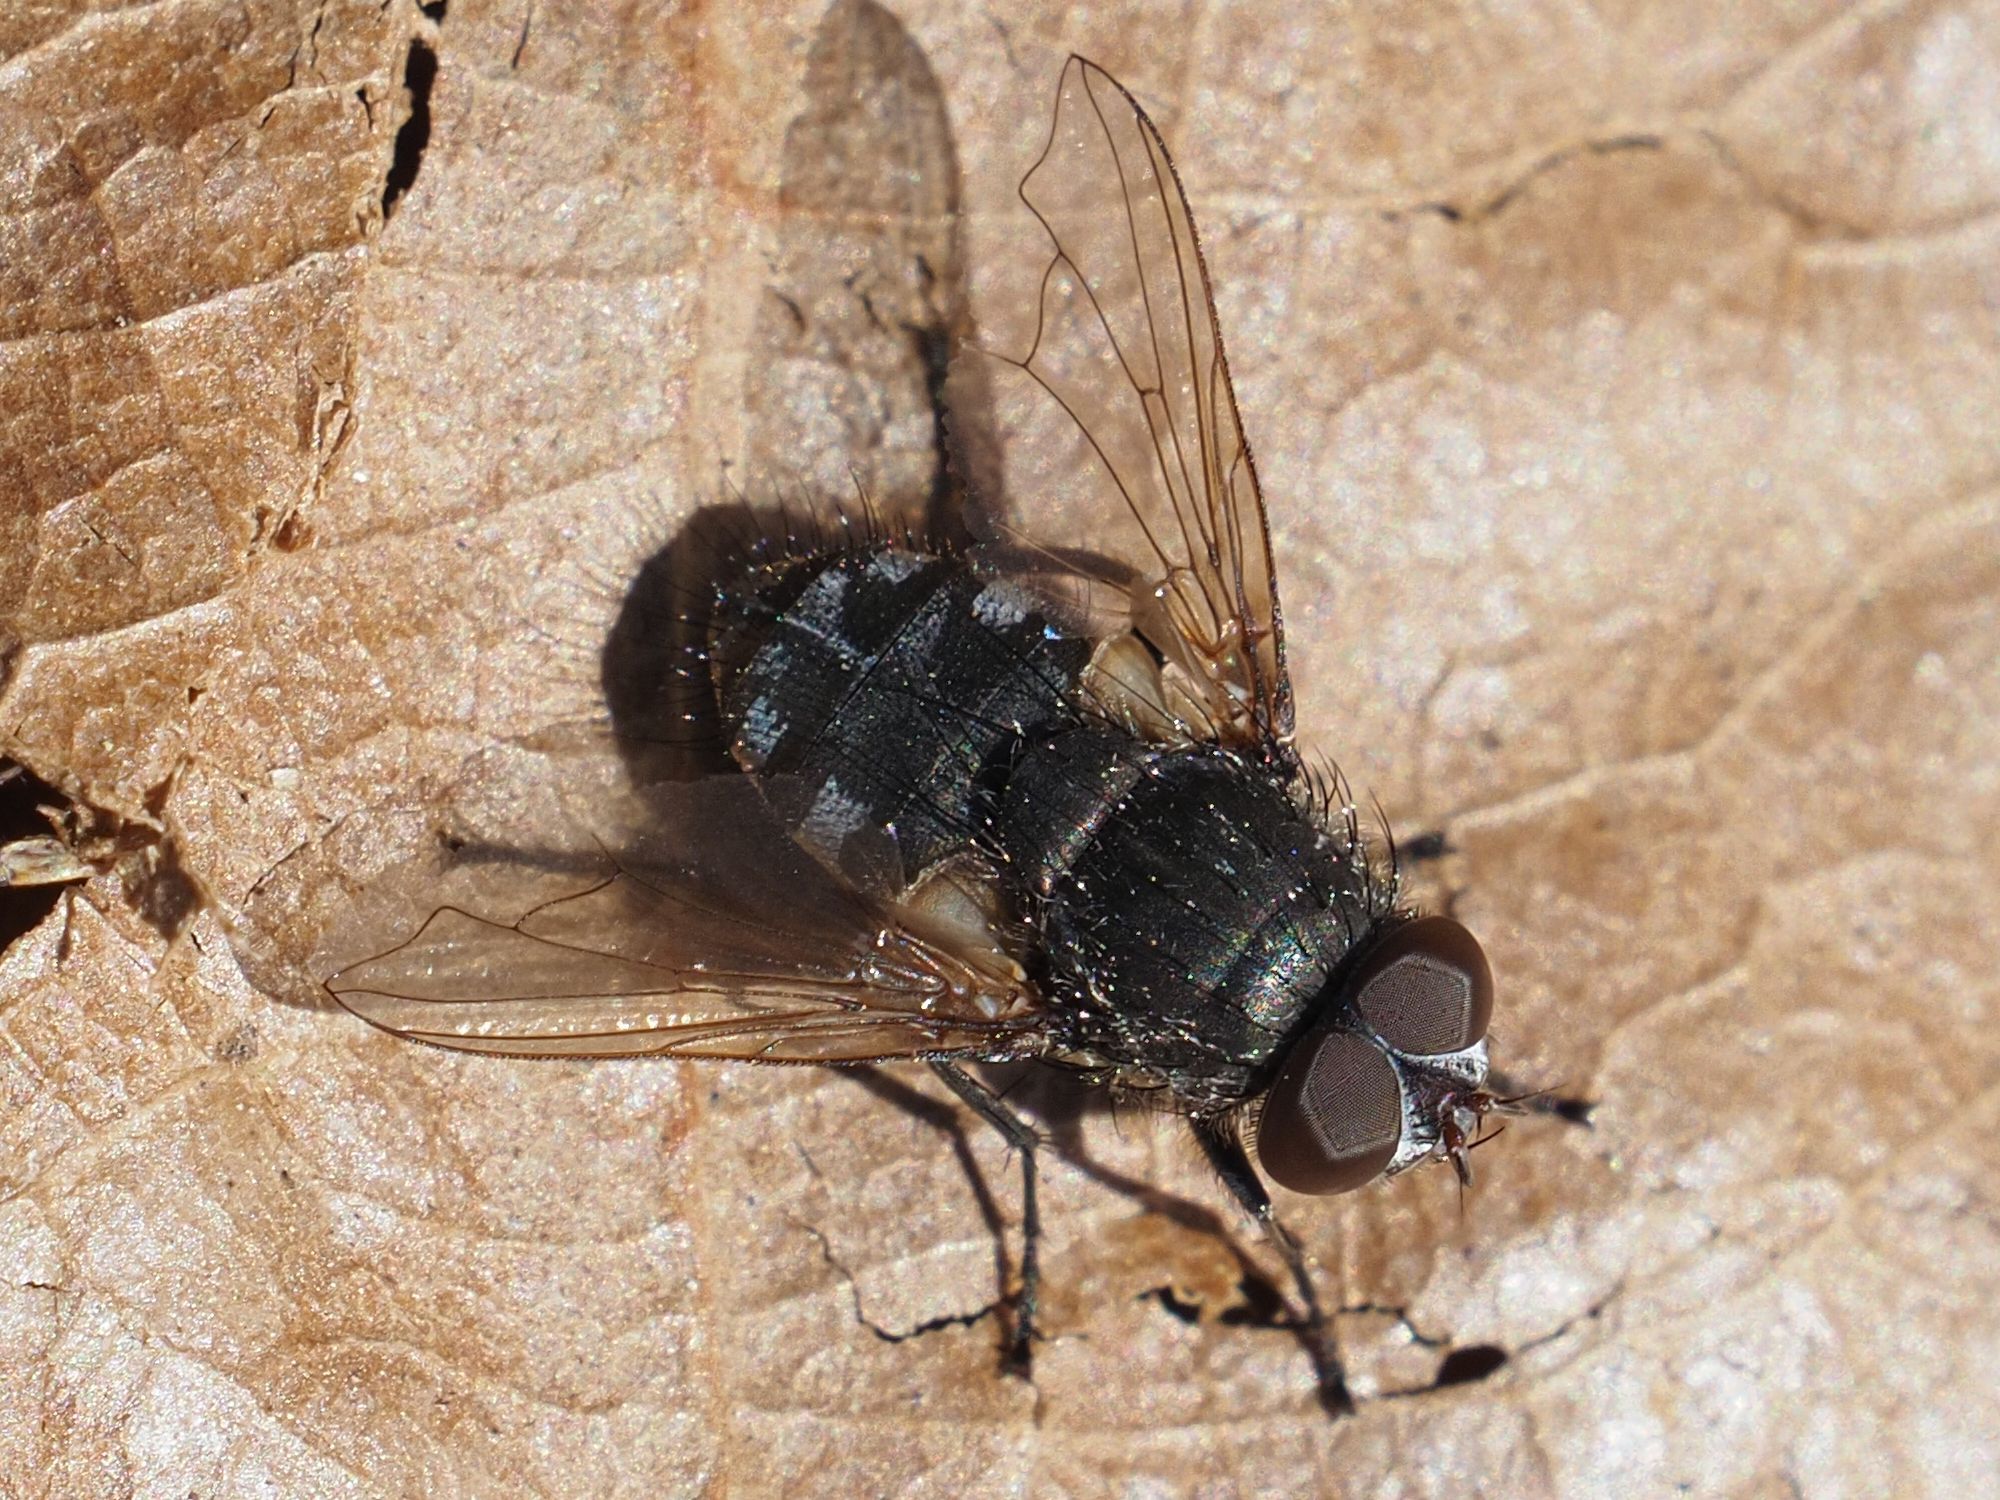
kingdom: Animalia
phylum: Arthropoda
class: Insecta
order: Diptera
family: Polleniidae
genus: Pollenia
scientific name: Pollenia angustigena
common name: Narrow-cheeked clusterfly
